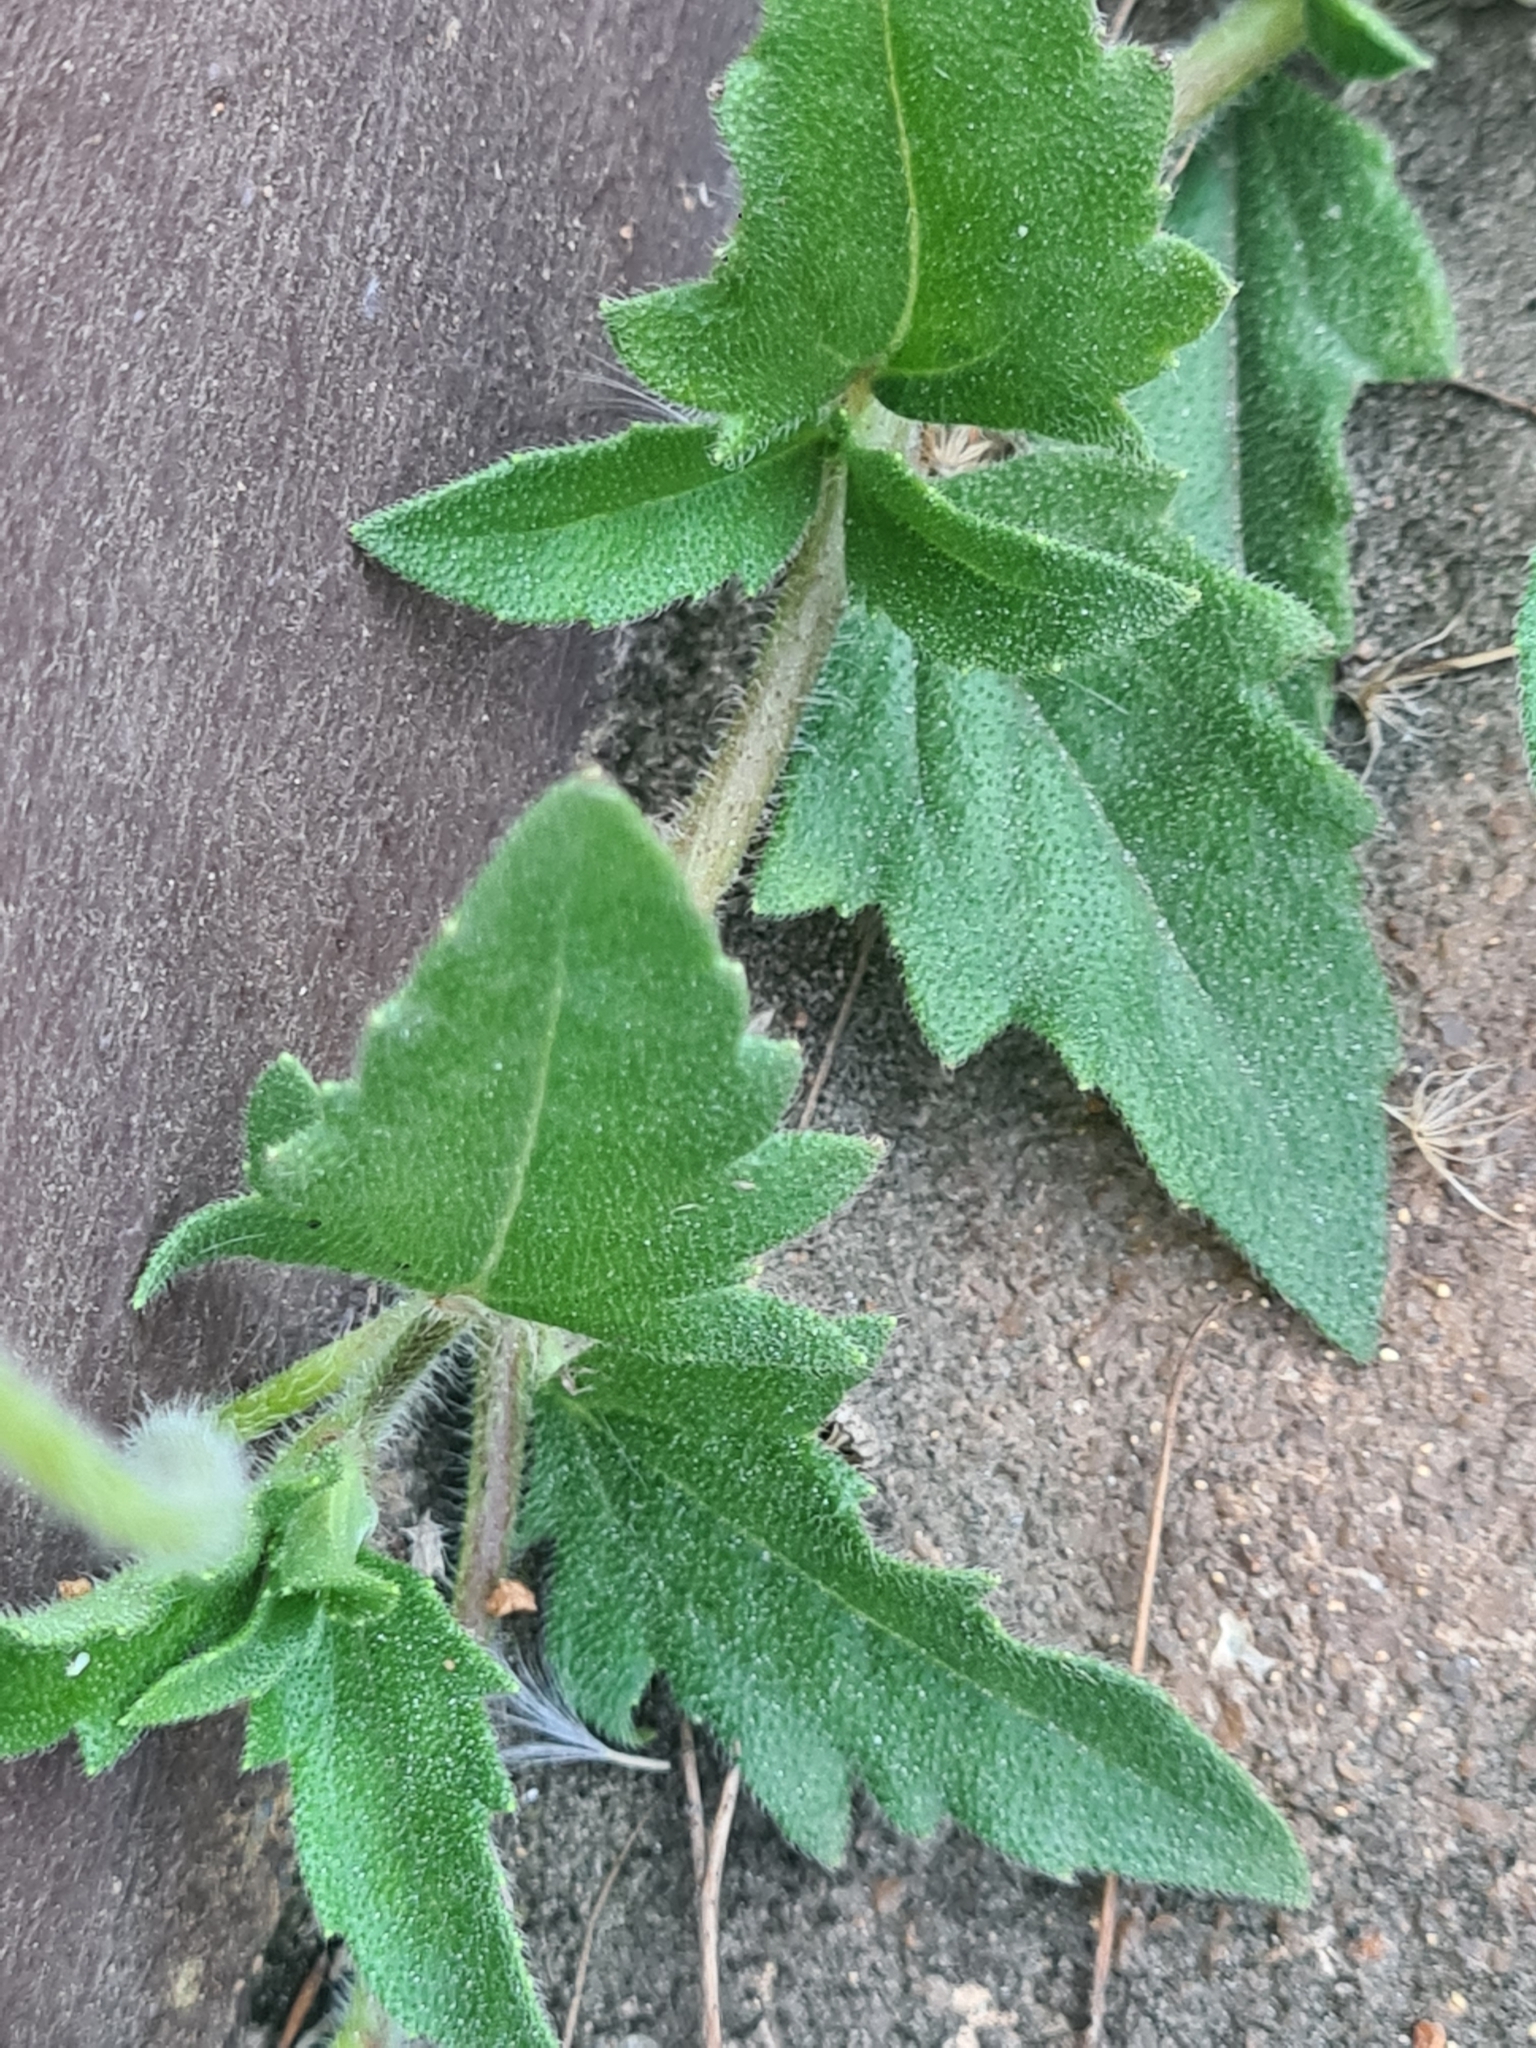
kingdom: Plantae
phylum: Tracheophyta
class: Magnoliopsida
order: Asterales
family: Asteraceae
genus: Tridax
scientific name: Tridax procumbens
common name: Coatbuttons
